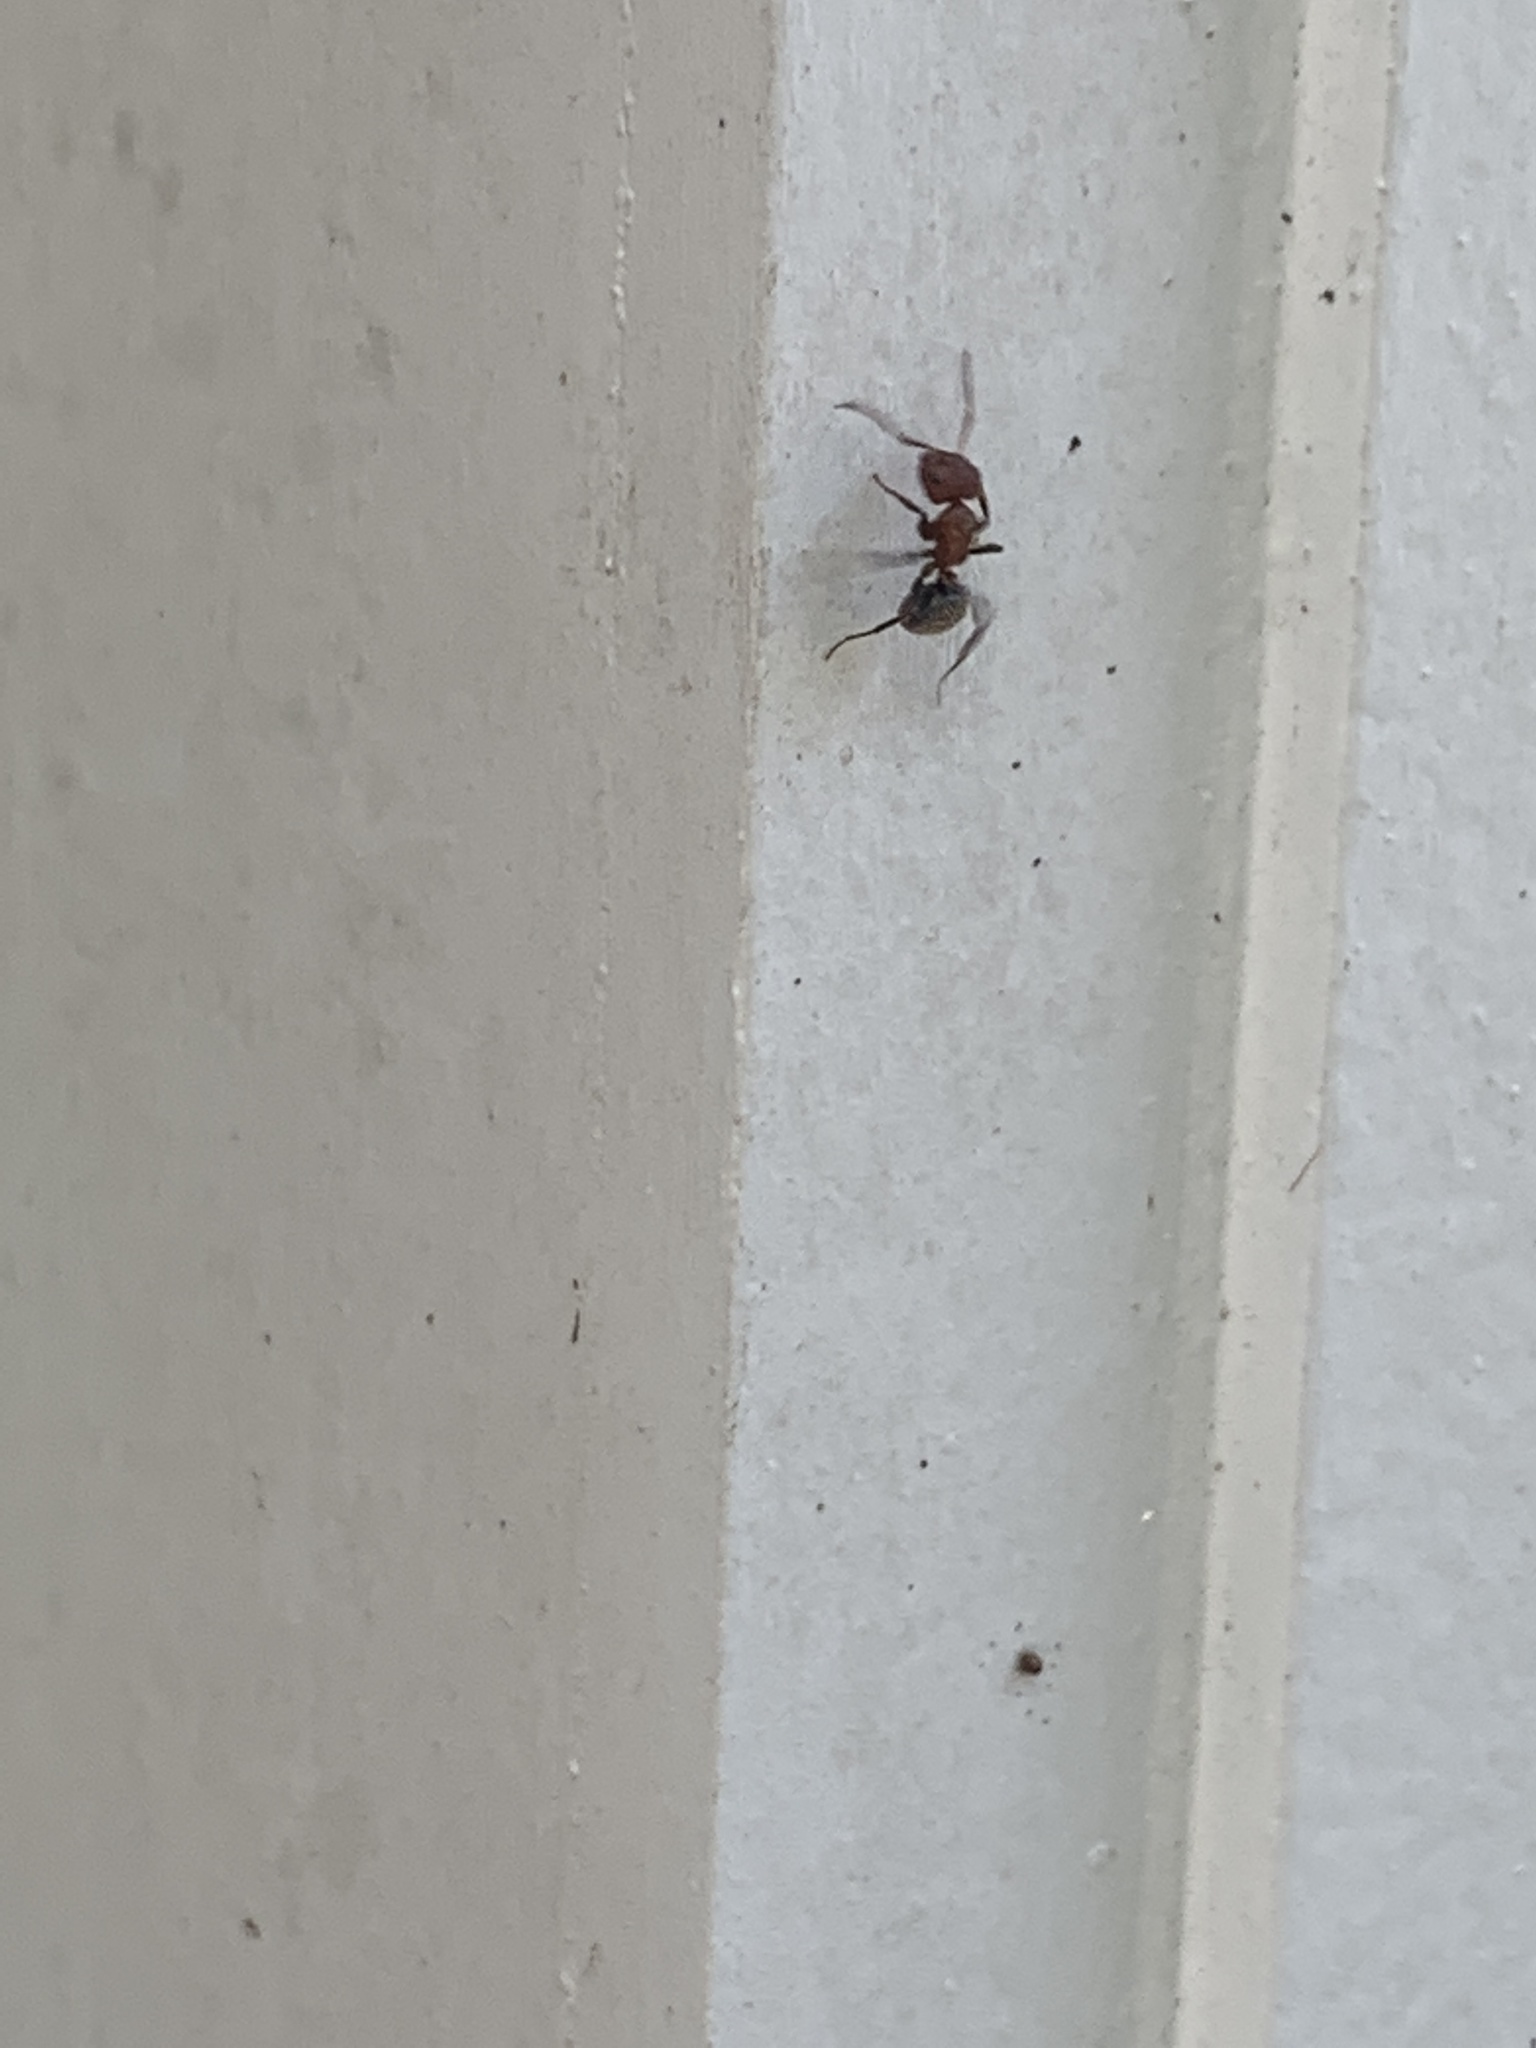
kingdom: Animalia
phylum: Arthropoda
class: Insecta
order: Hymenoptera
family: Formicidae
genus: Camponotus
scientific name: Camponotus planatus
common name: Compact carpenter ant
